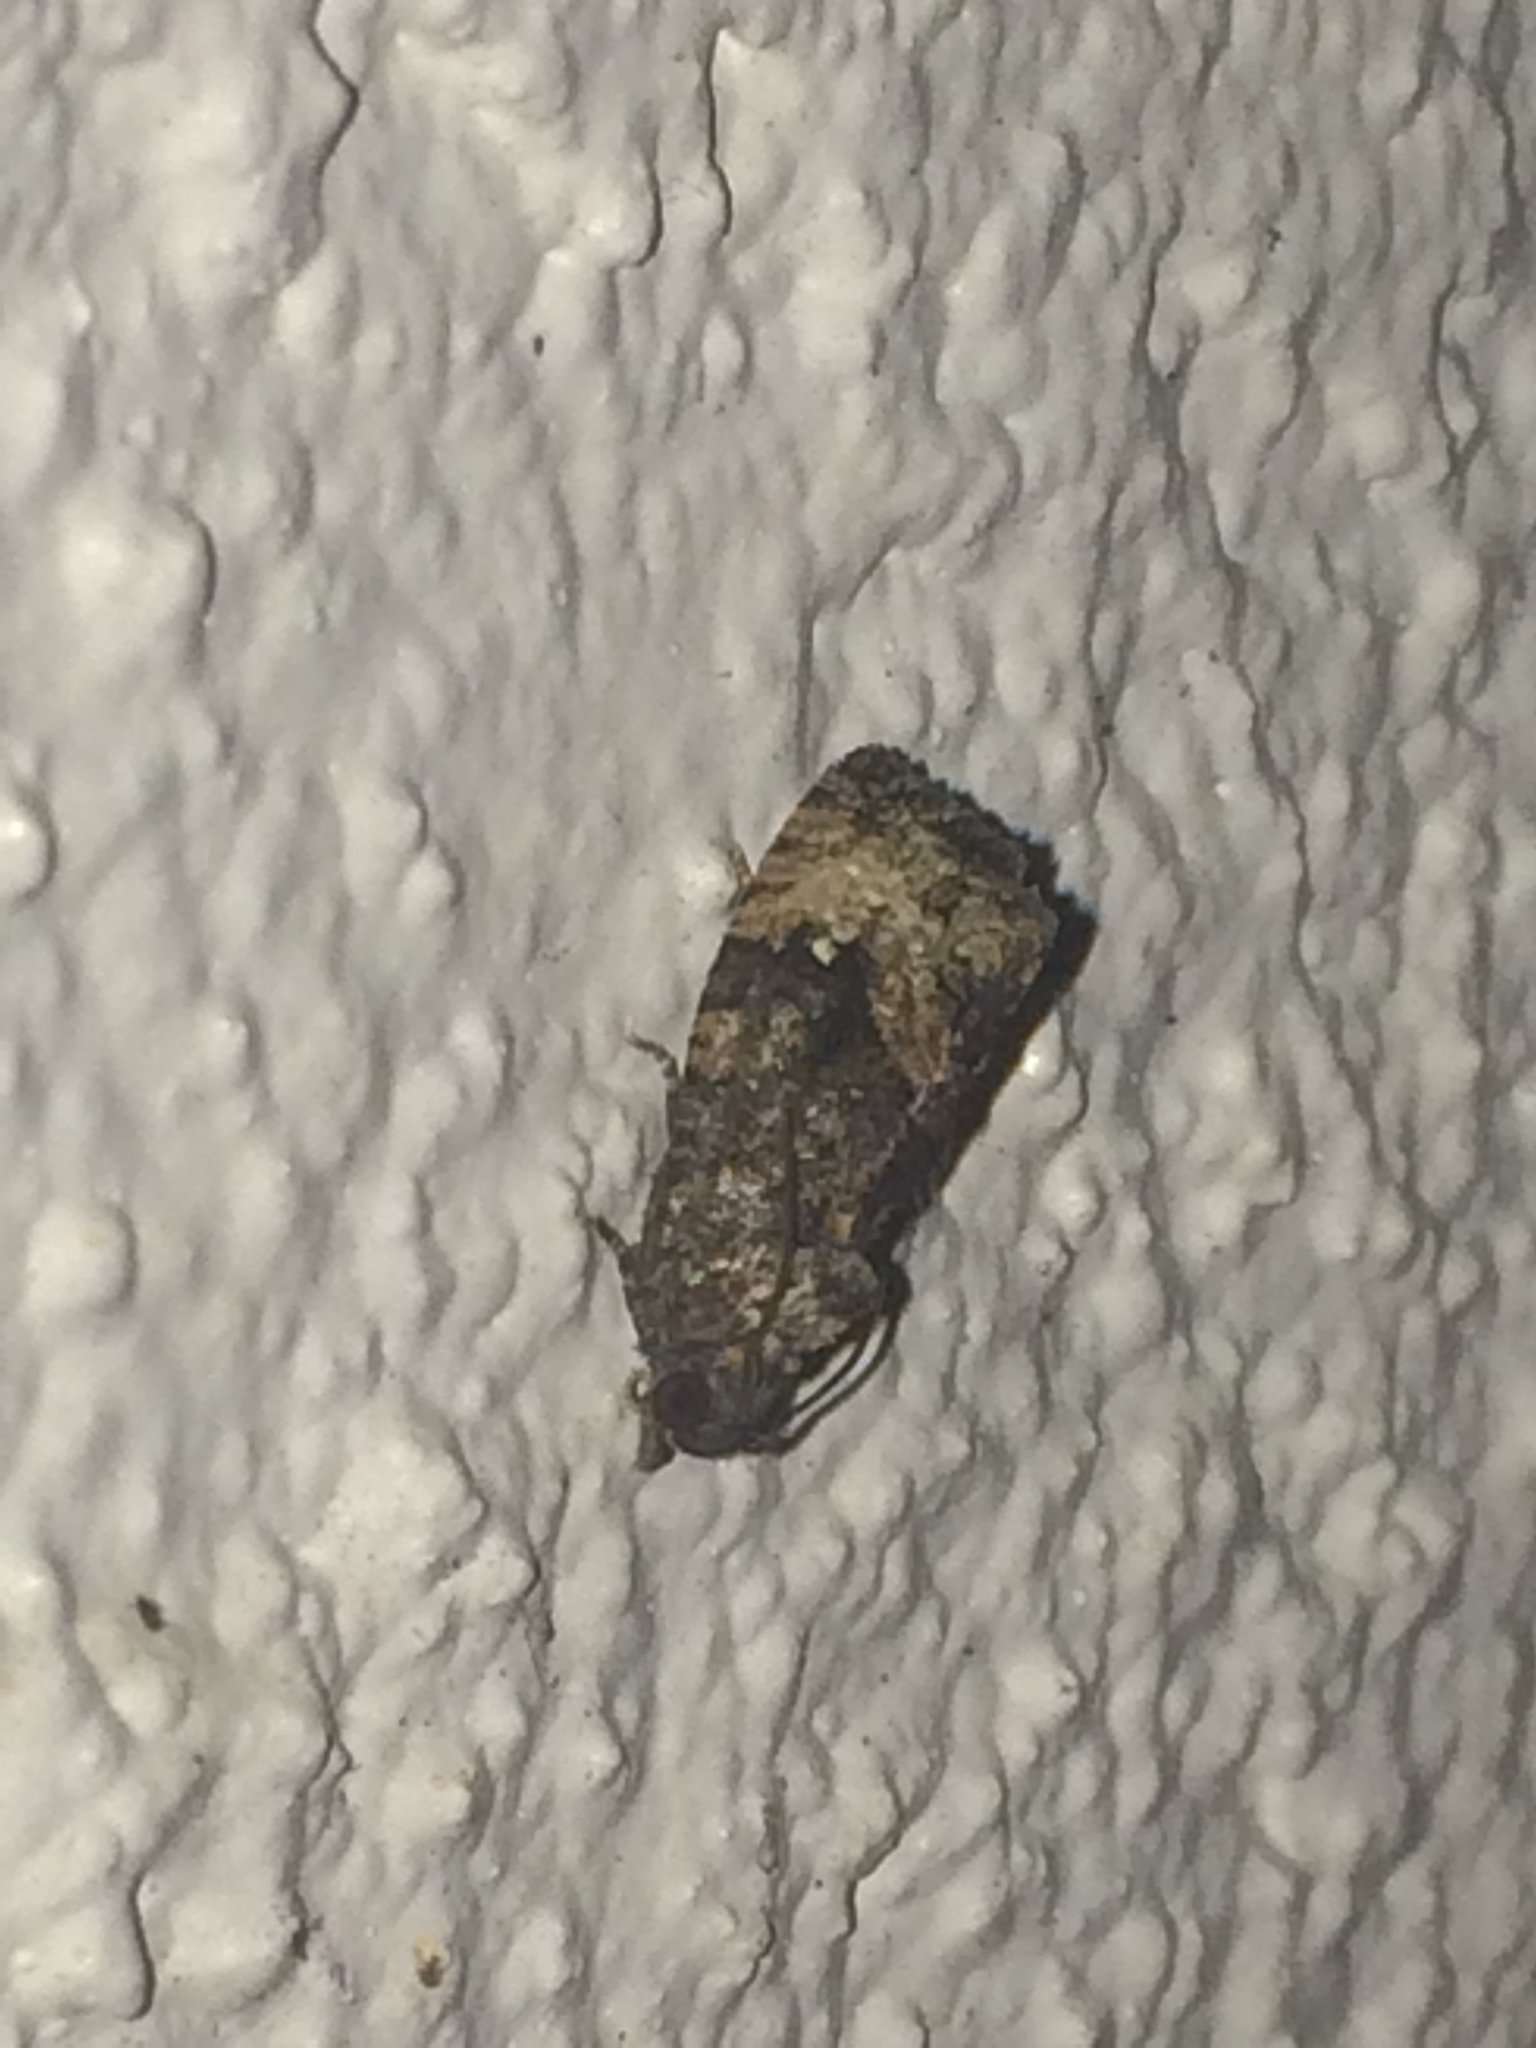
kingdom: Animalia
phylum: Arthropoda
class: Insecta
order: Lepidoptera
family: Tortricidae
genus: Gymnandrosoma
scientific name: Gymnandrosoma punctidiscanum
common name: Dotted ecdytolopha moth
